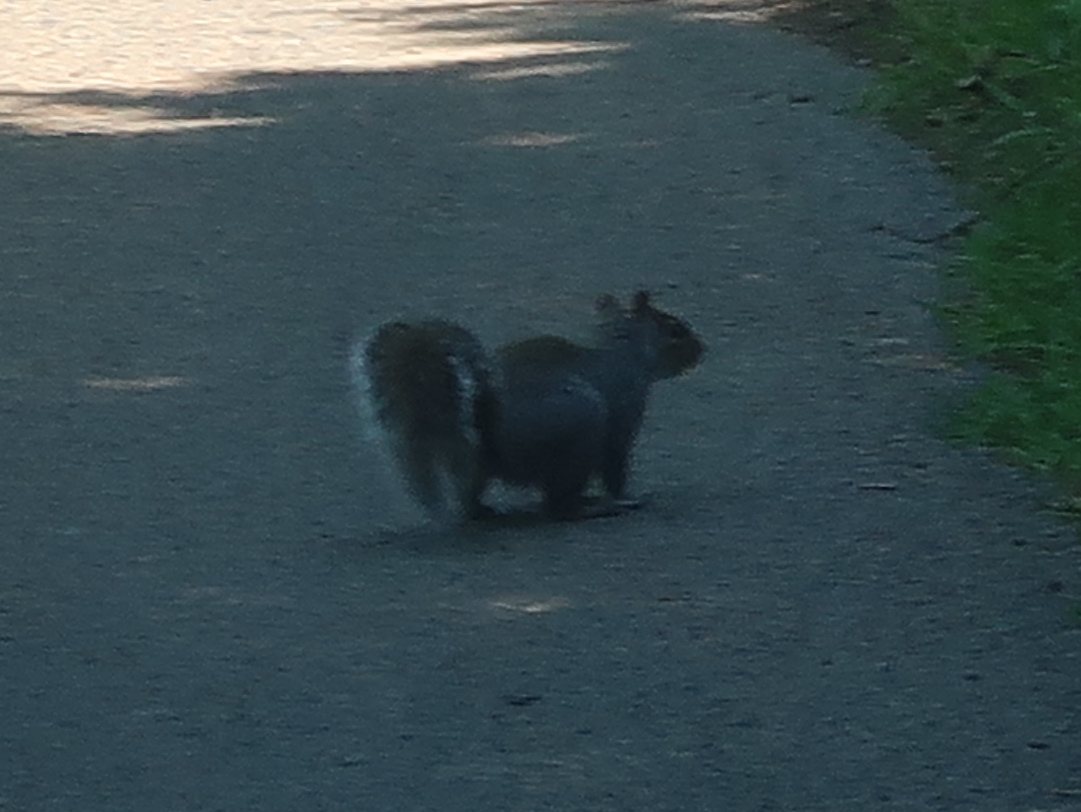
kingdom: Animalia
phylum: Chordata
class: Mammalia
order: Rodentia
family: Sciuridae
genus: Sciurus
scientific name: Sciurus carolinensis
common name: Eastern gray squirrel
